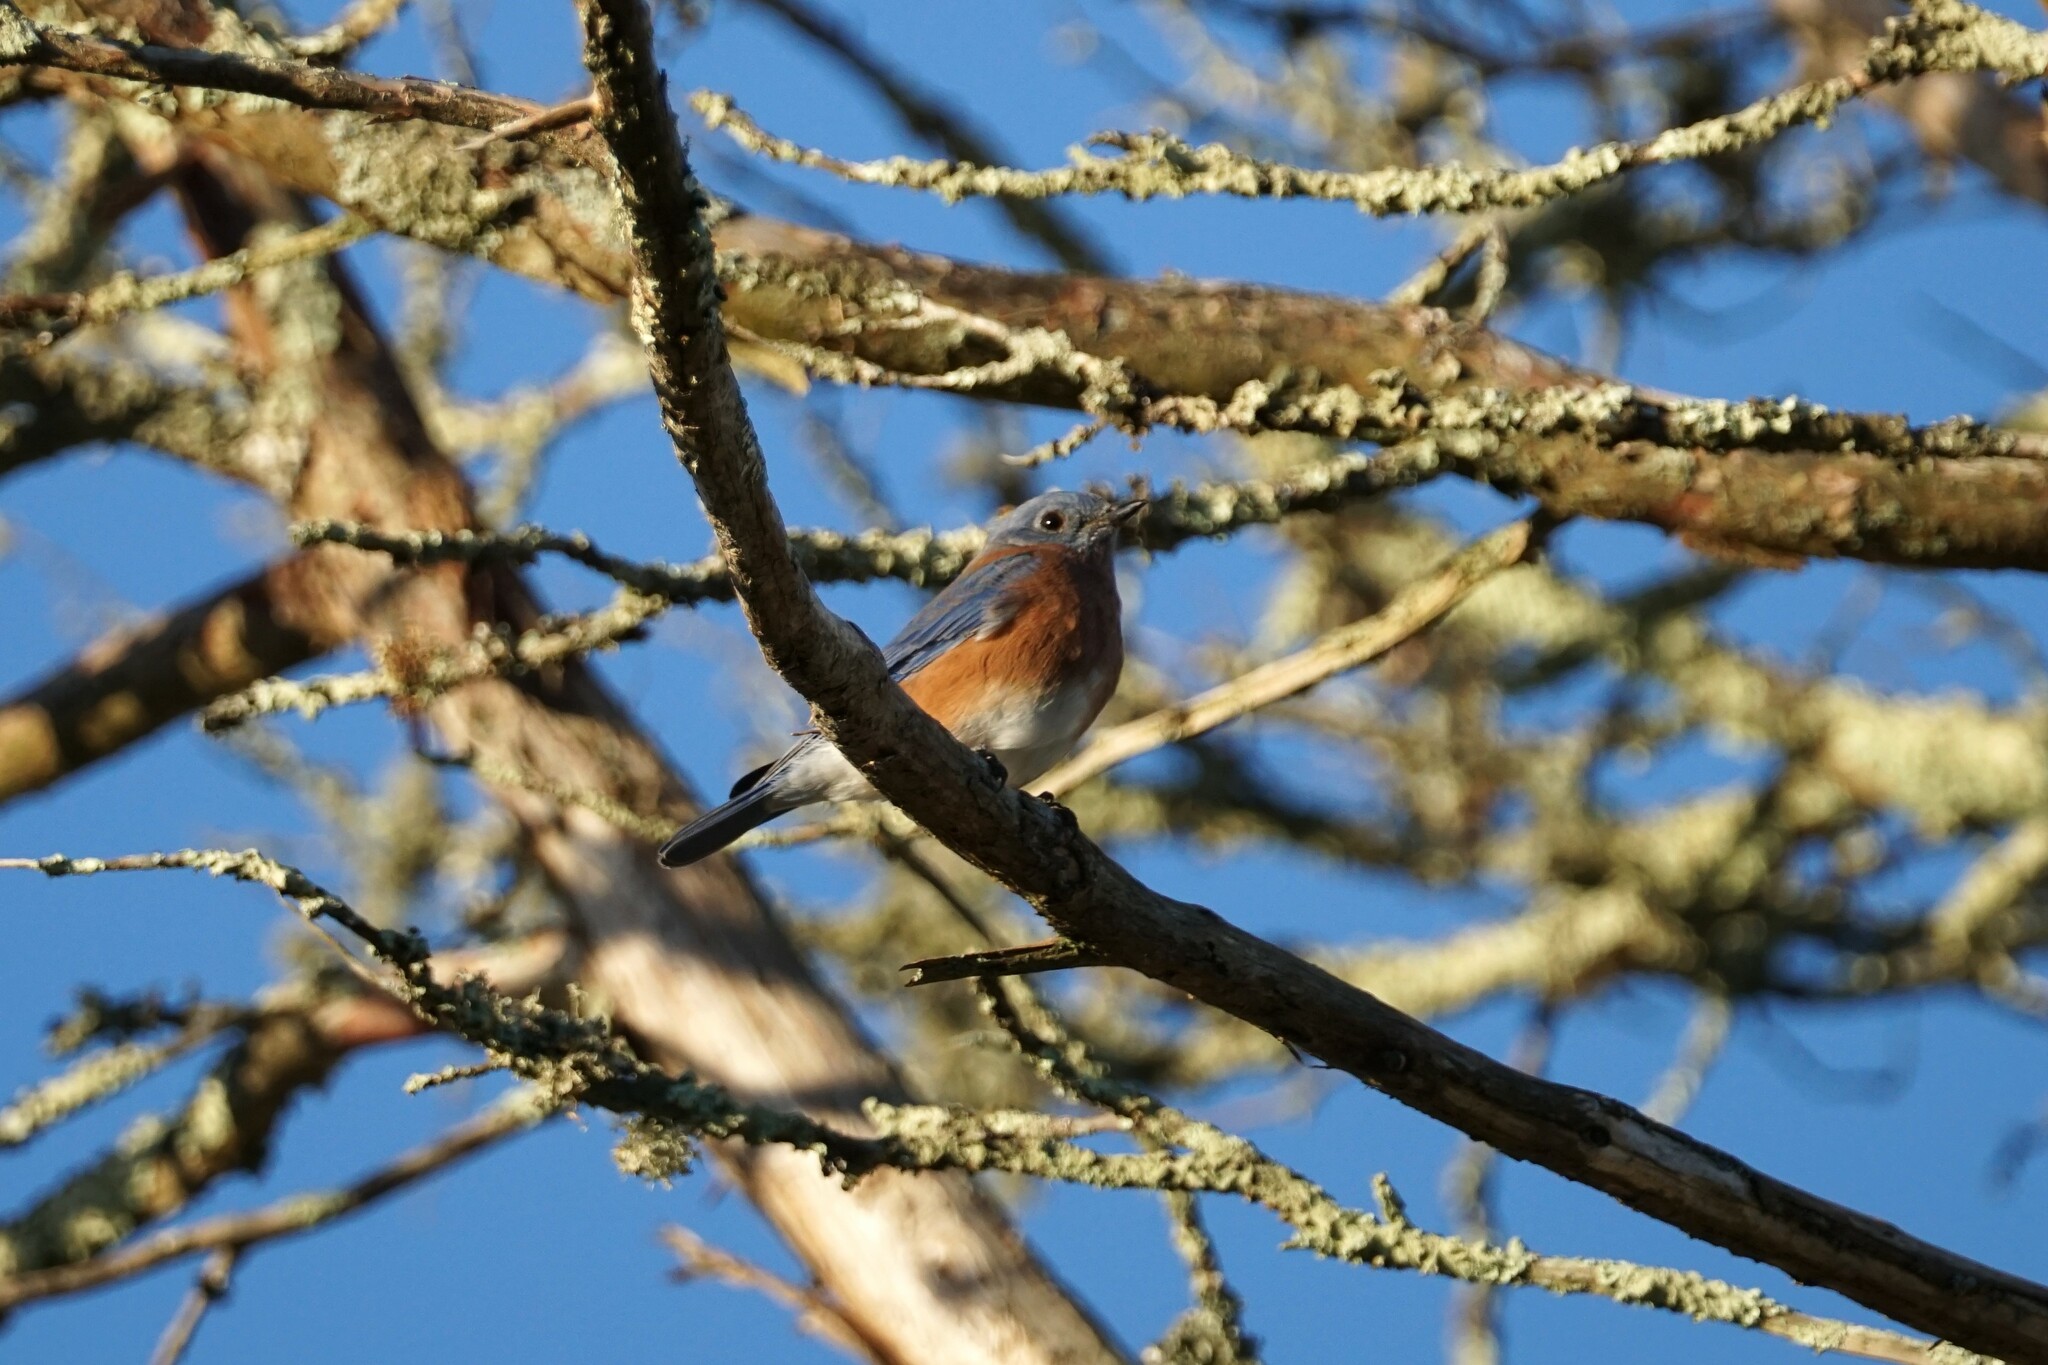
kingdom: Animalia
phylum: Chordata
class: Aves
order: Passeriformes
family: Turdidae
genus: Sialia
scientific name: Sialia sialis
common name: Eastern bluebird
